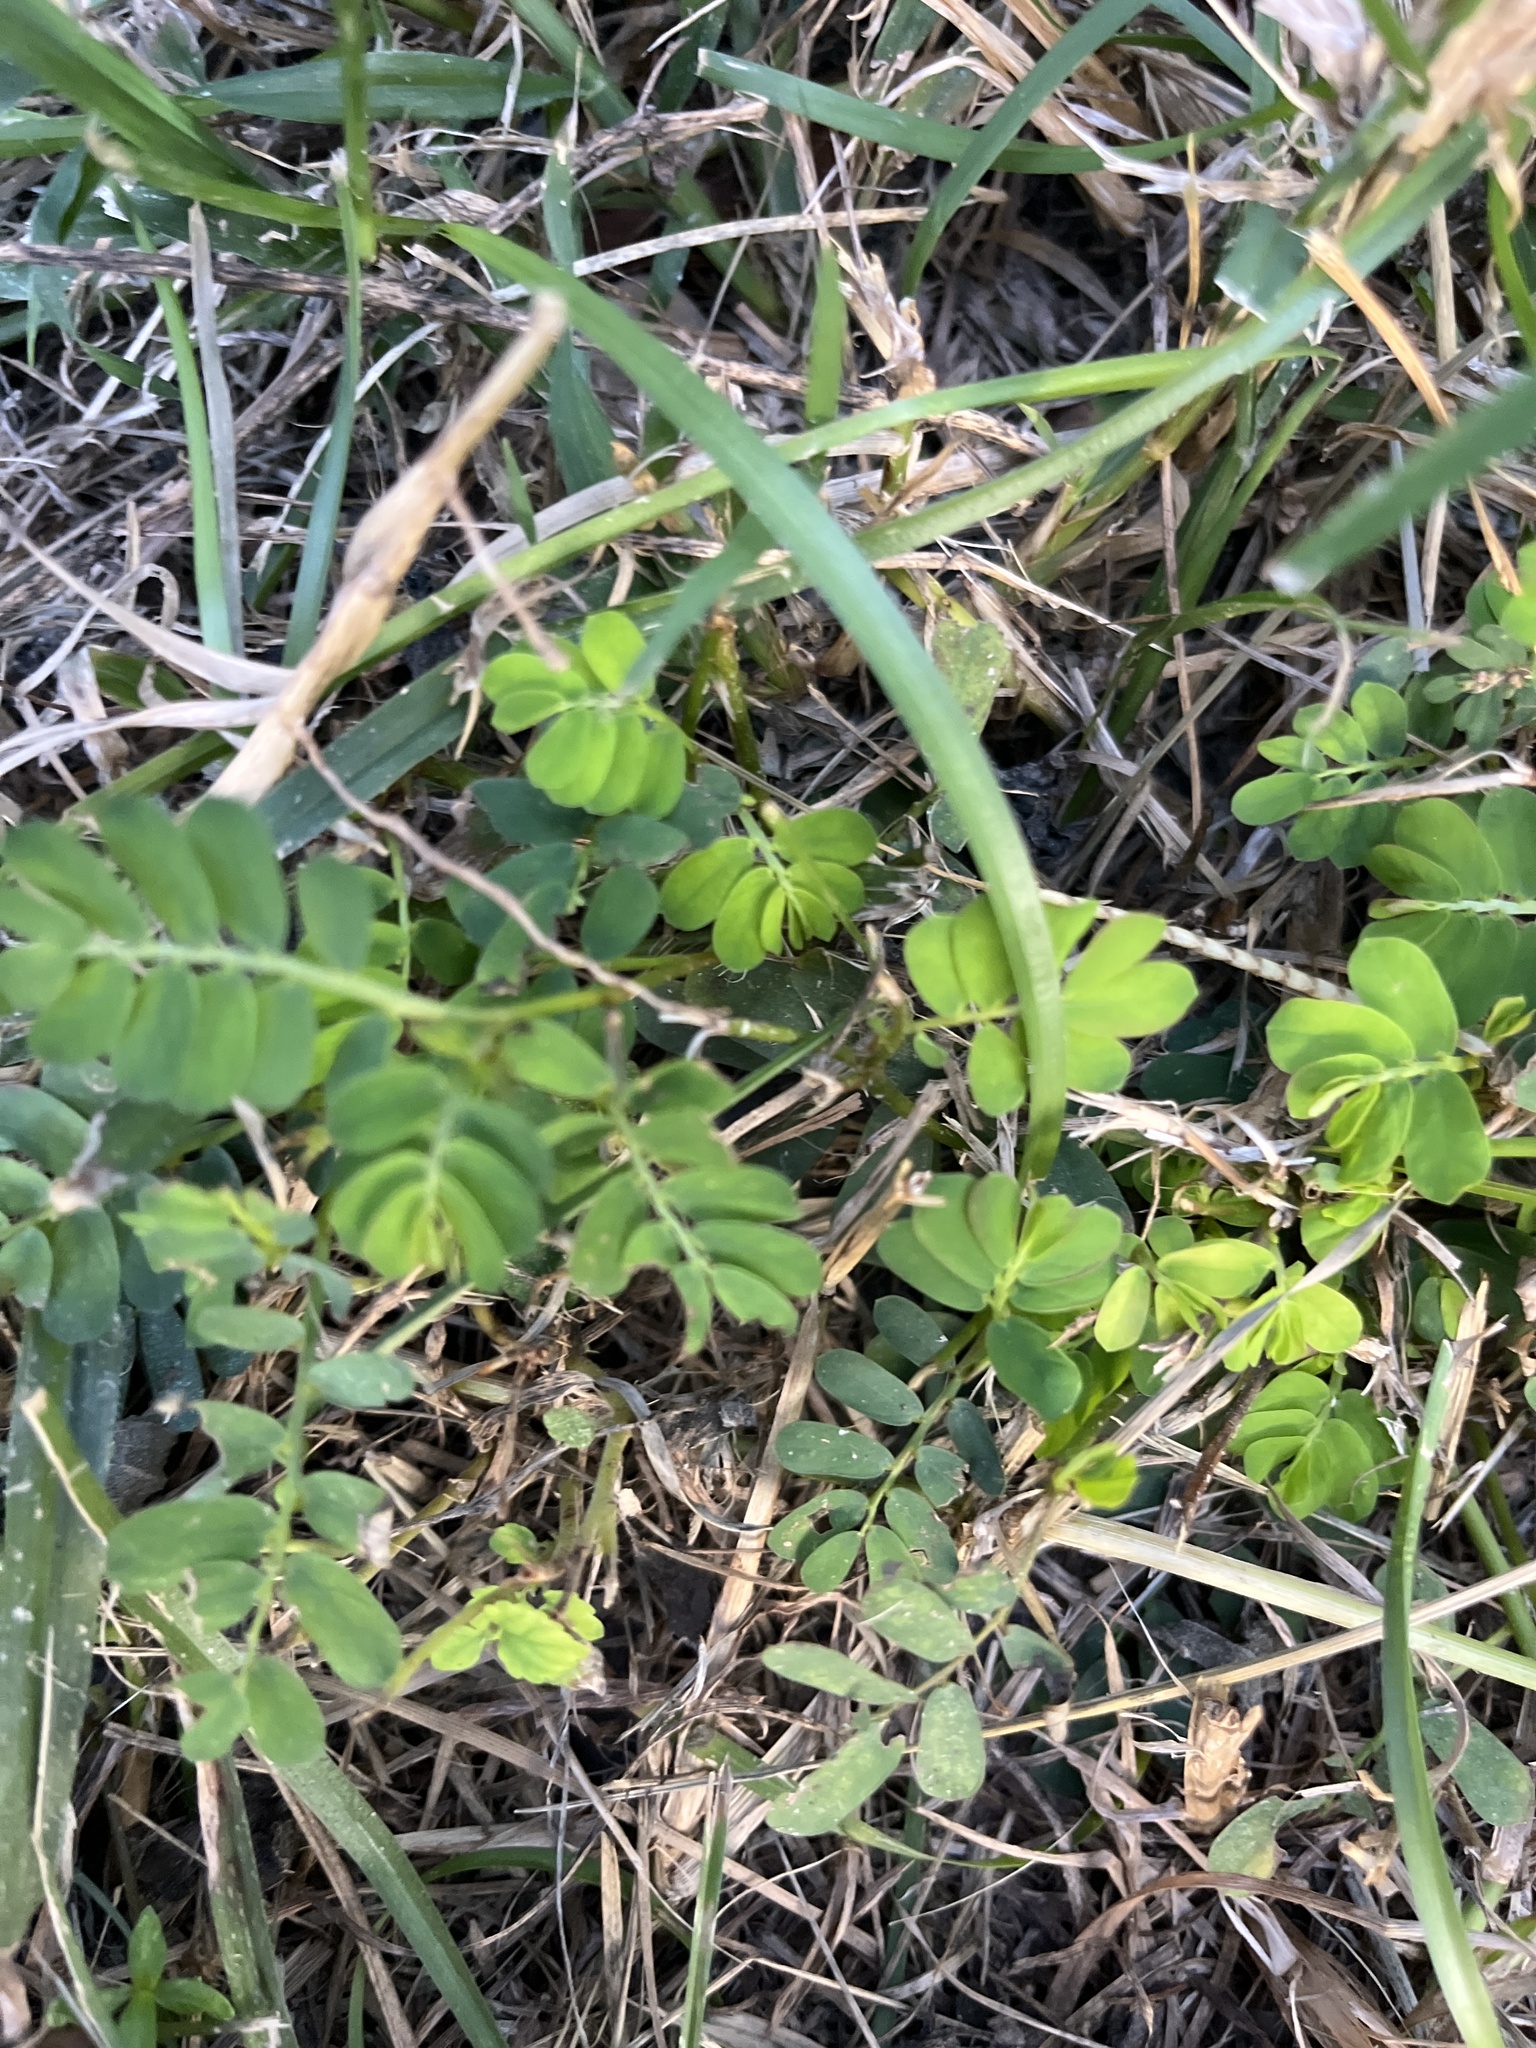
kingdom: Plantae
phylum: Tracheophyta
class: Magnoliopsida
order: Malpighiales
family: Phyllanthaceae
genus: Phyllanthus
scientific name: Phyllanthus urinaria
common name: Chamber bitter
